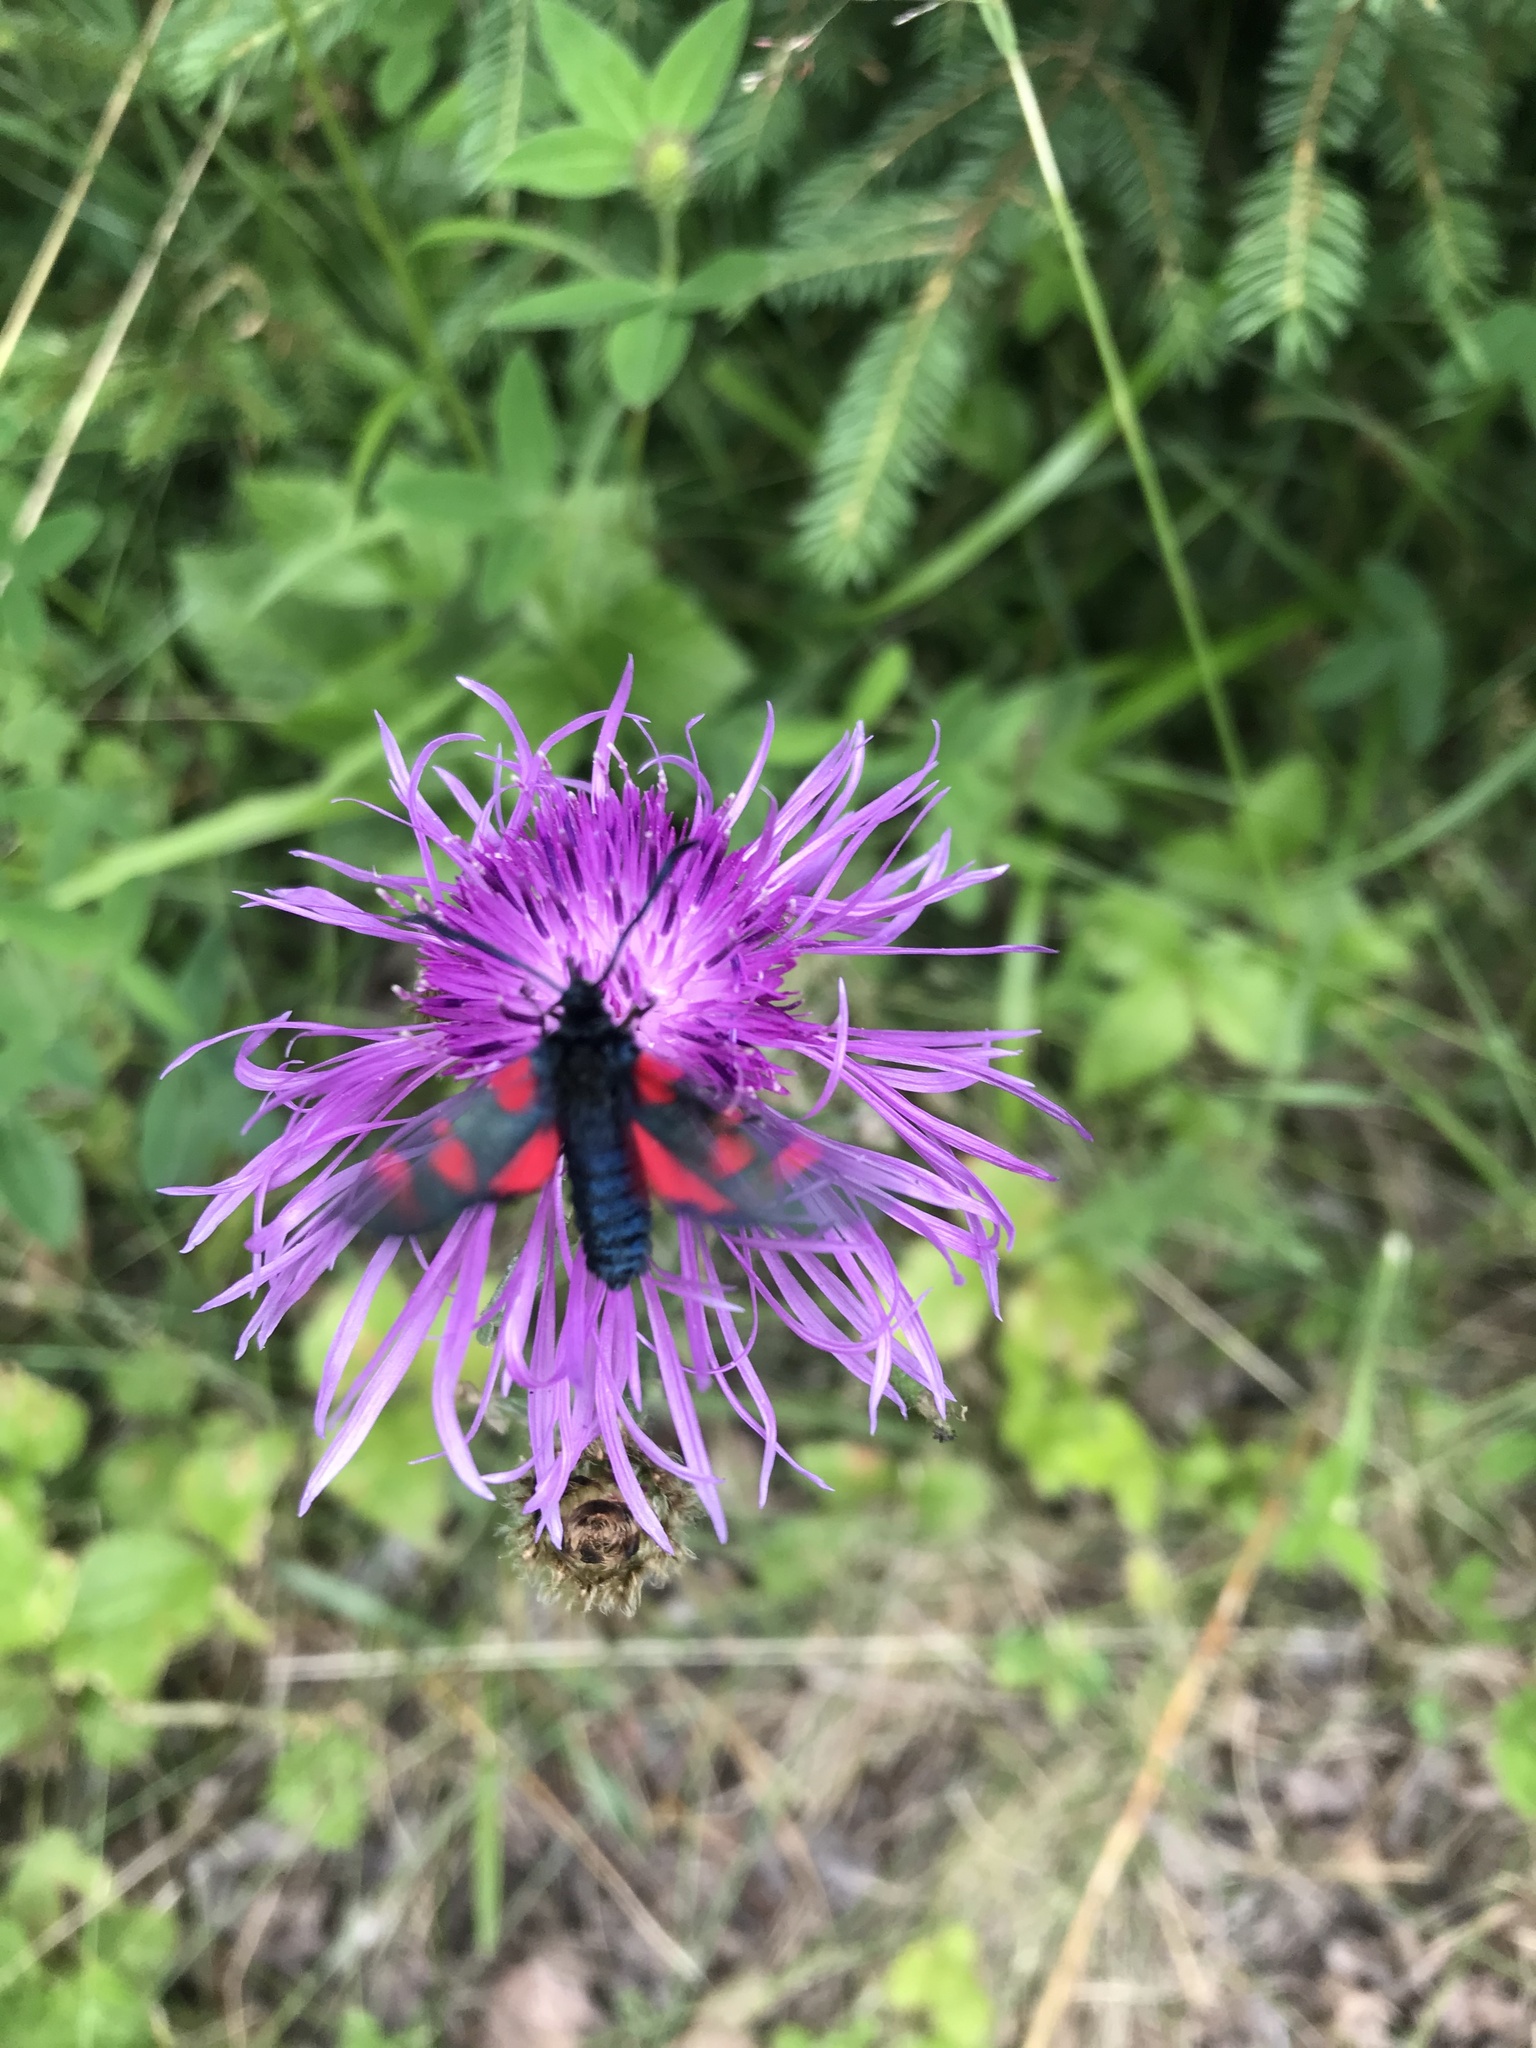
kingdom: Animalia
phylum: Arthropoda
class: Insecta
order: Lepidoptera
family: Zygaenidae
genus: Zygaena
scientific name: Zygaena lonicerae
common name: Narrow-bordered five-spot burnet
